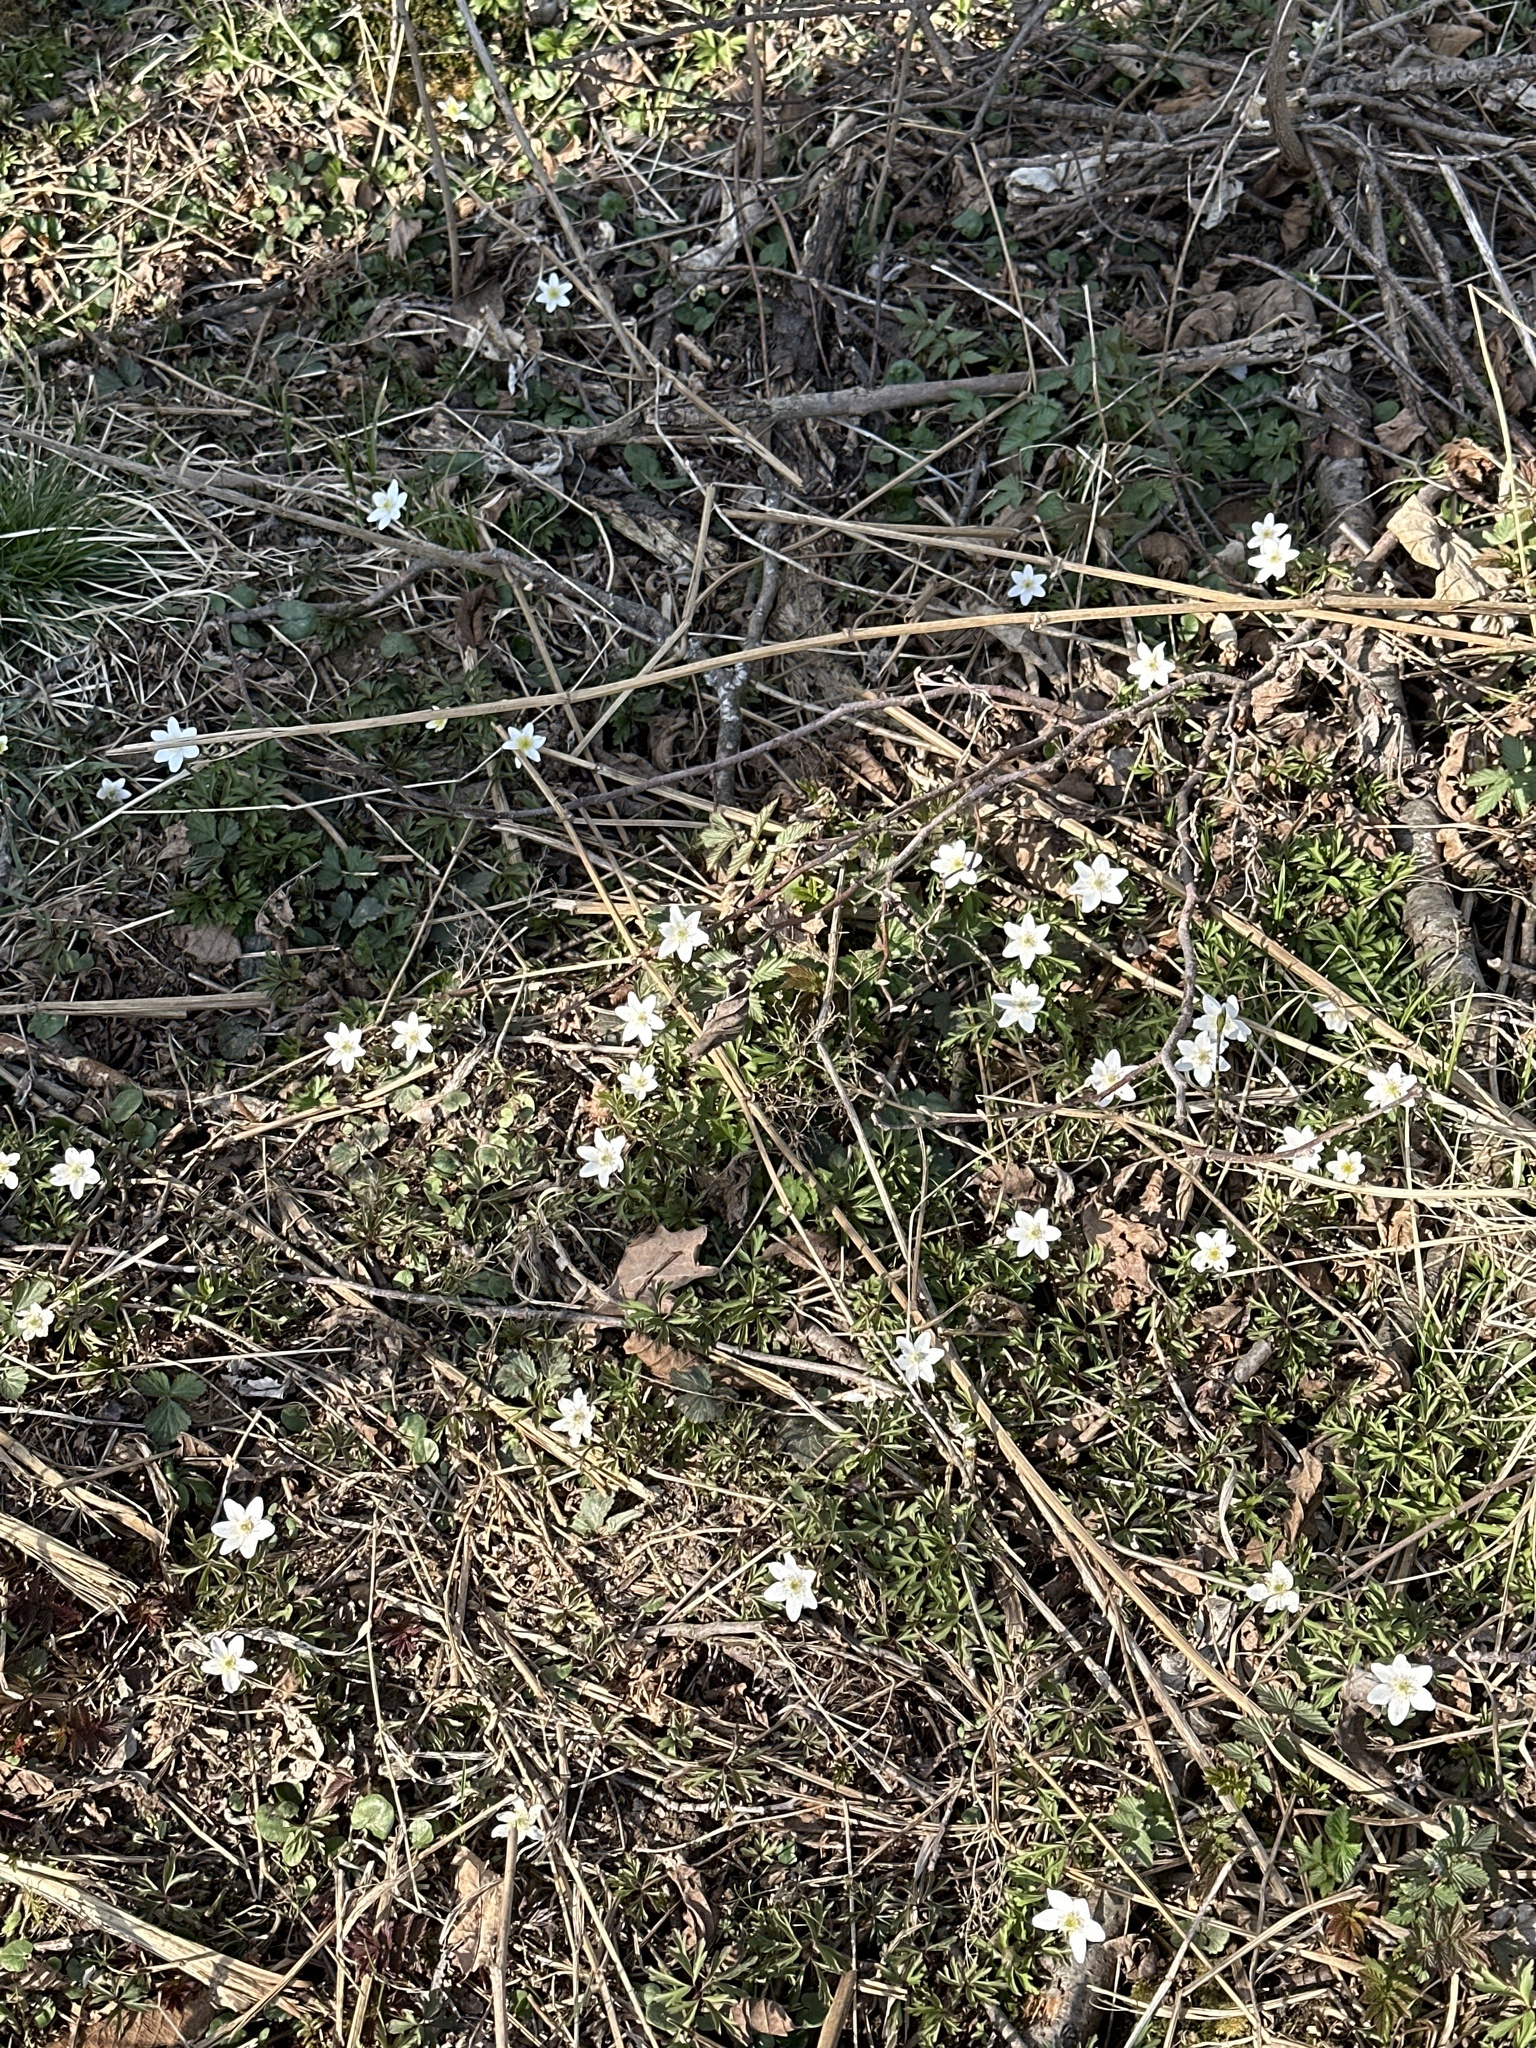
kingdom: Plantae
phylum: Tracheophyta
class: Magnoliopsida
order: Ranunculales
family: Ranunculaceae
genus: Anemone
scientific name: Anemone nemorosa
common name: Wood anemone
